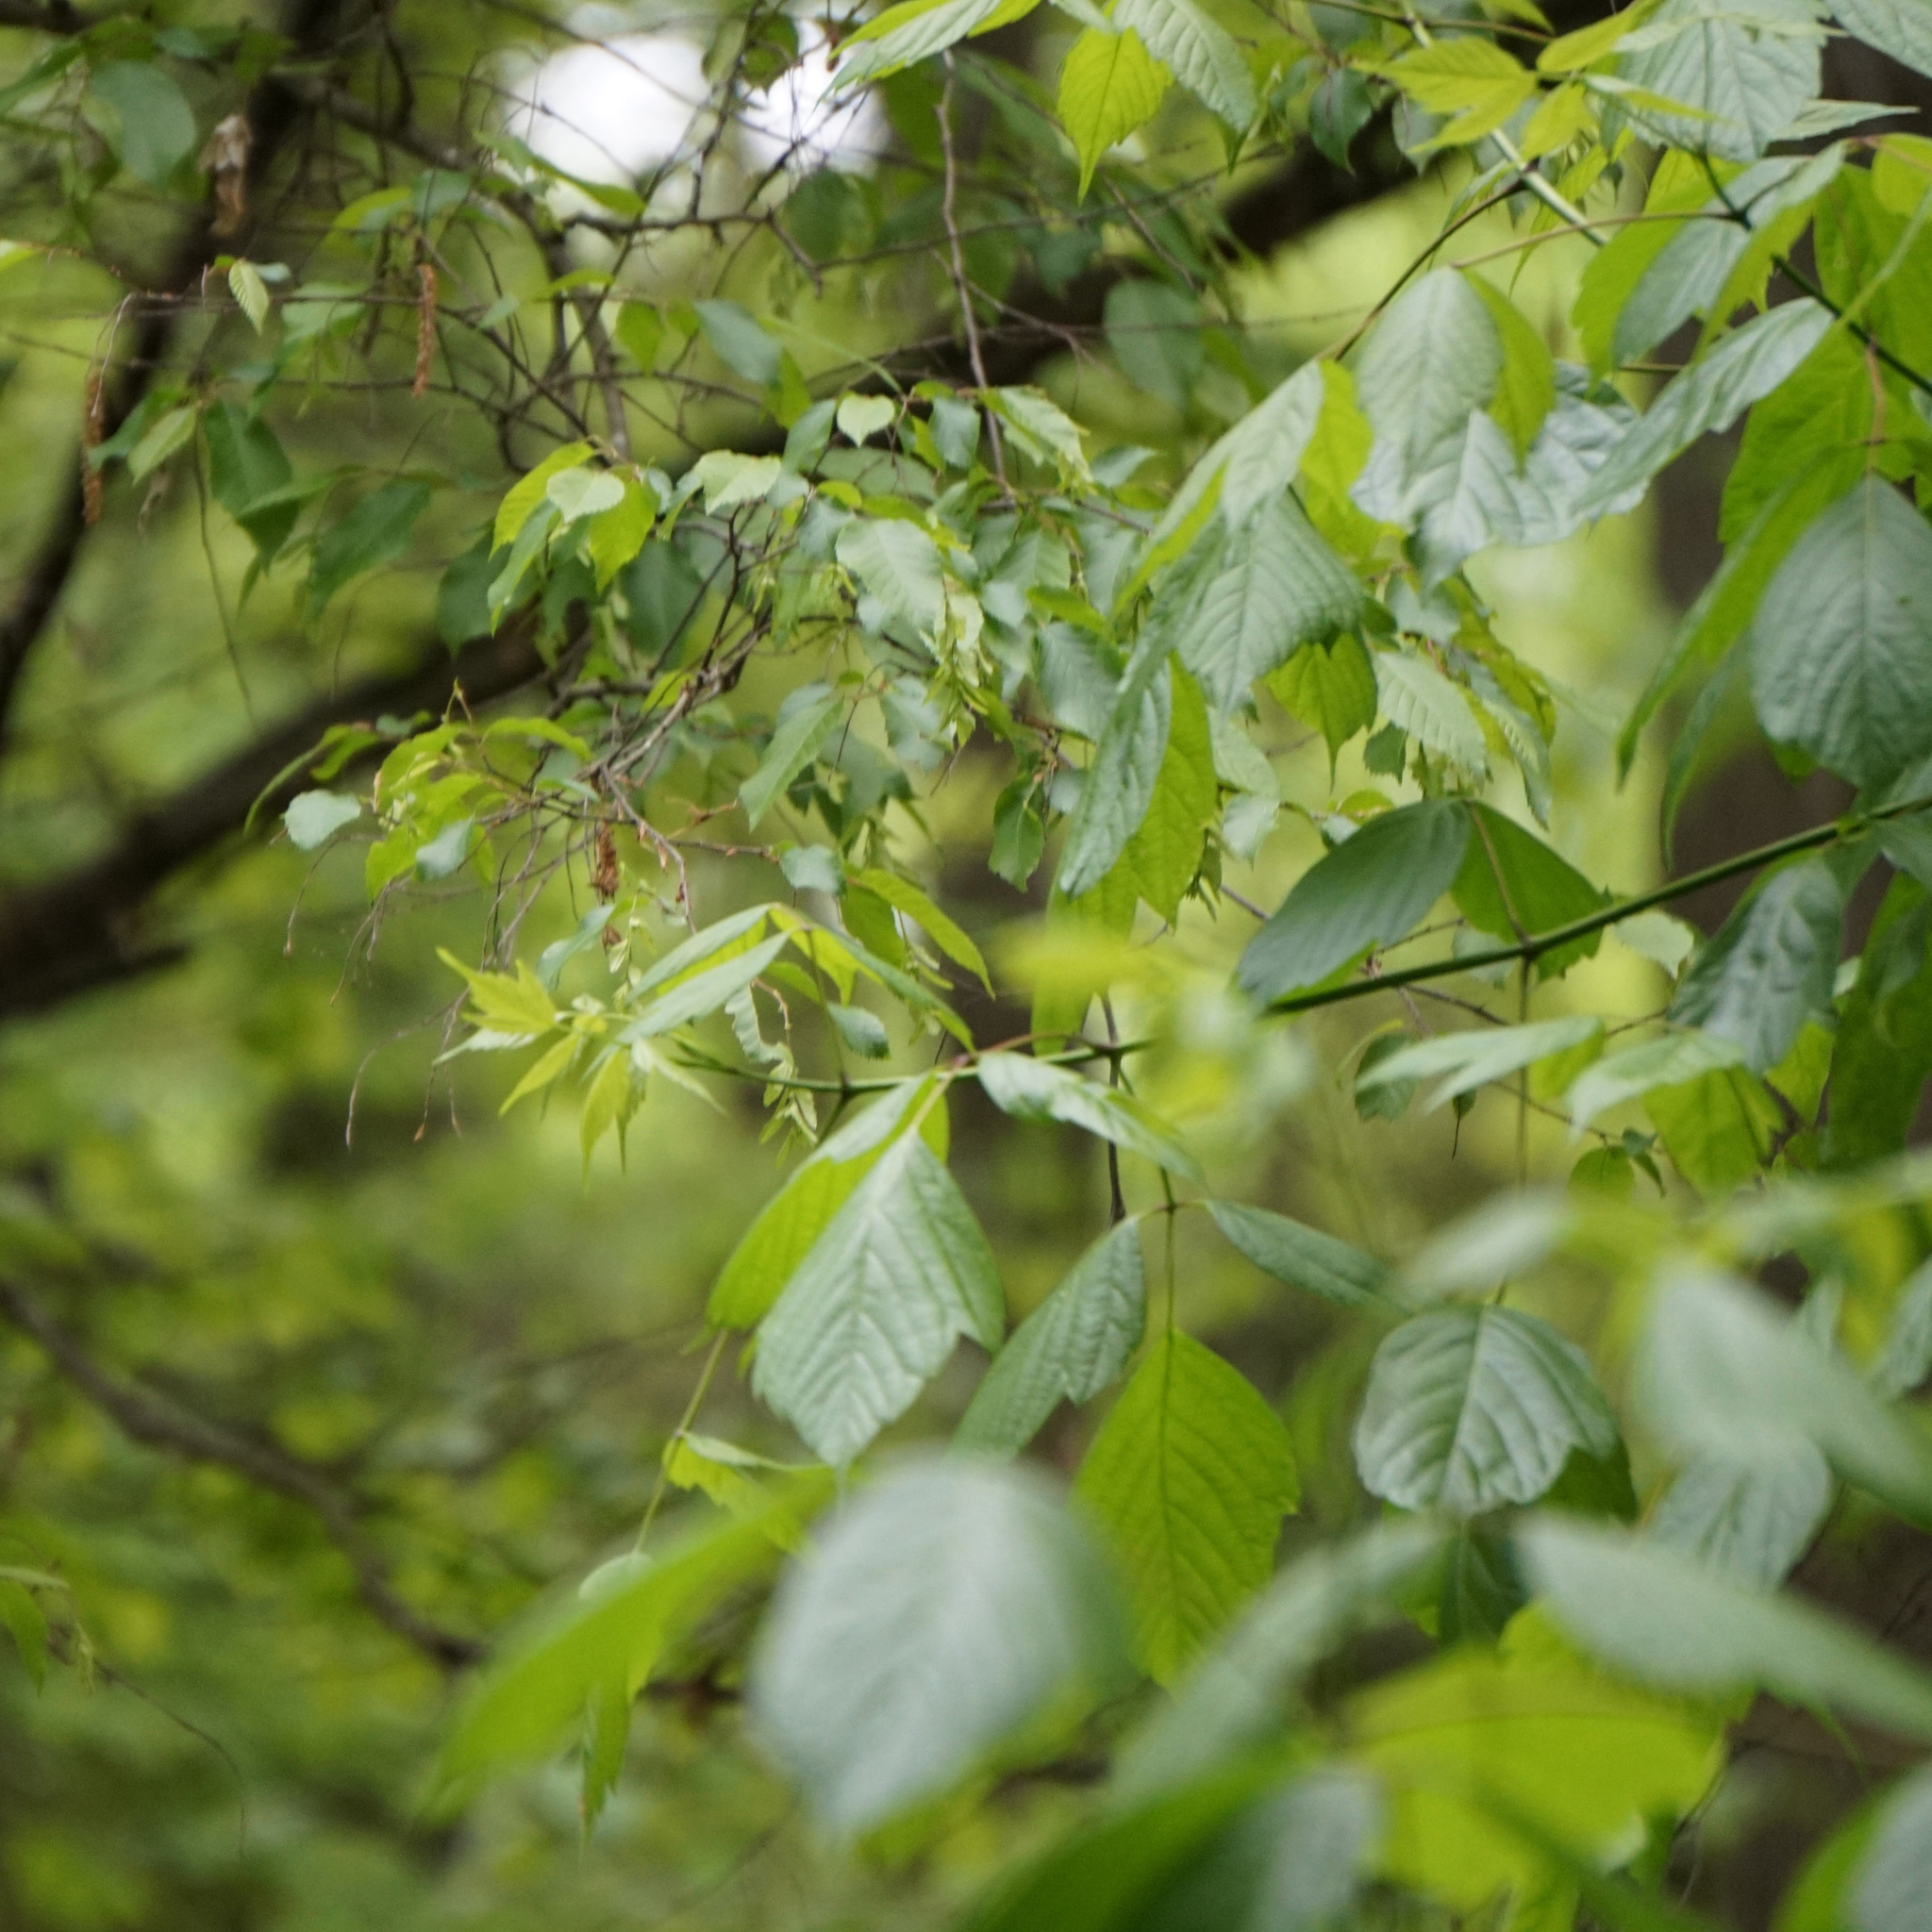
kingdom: Plantae
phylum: Tracheophyta
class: Magnoliopsida
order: Sapindales
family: Sapindaceae
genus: Acer
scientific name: Acer negundo
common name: Ashleaf maple
